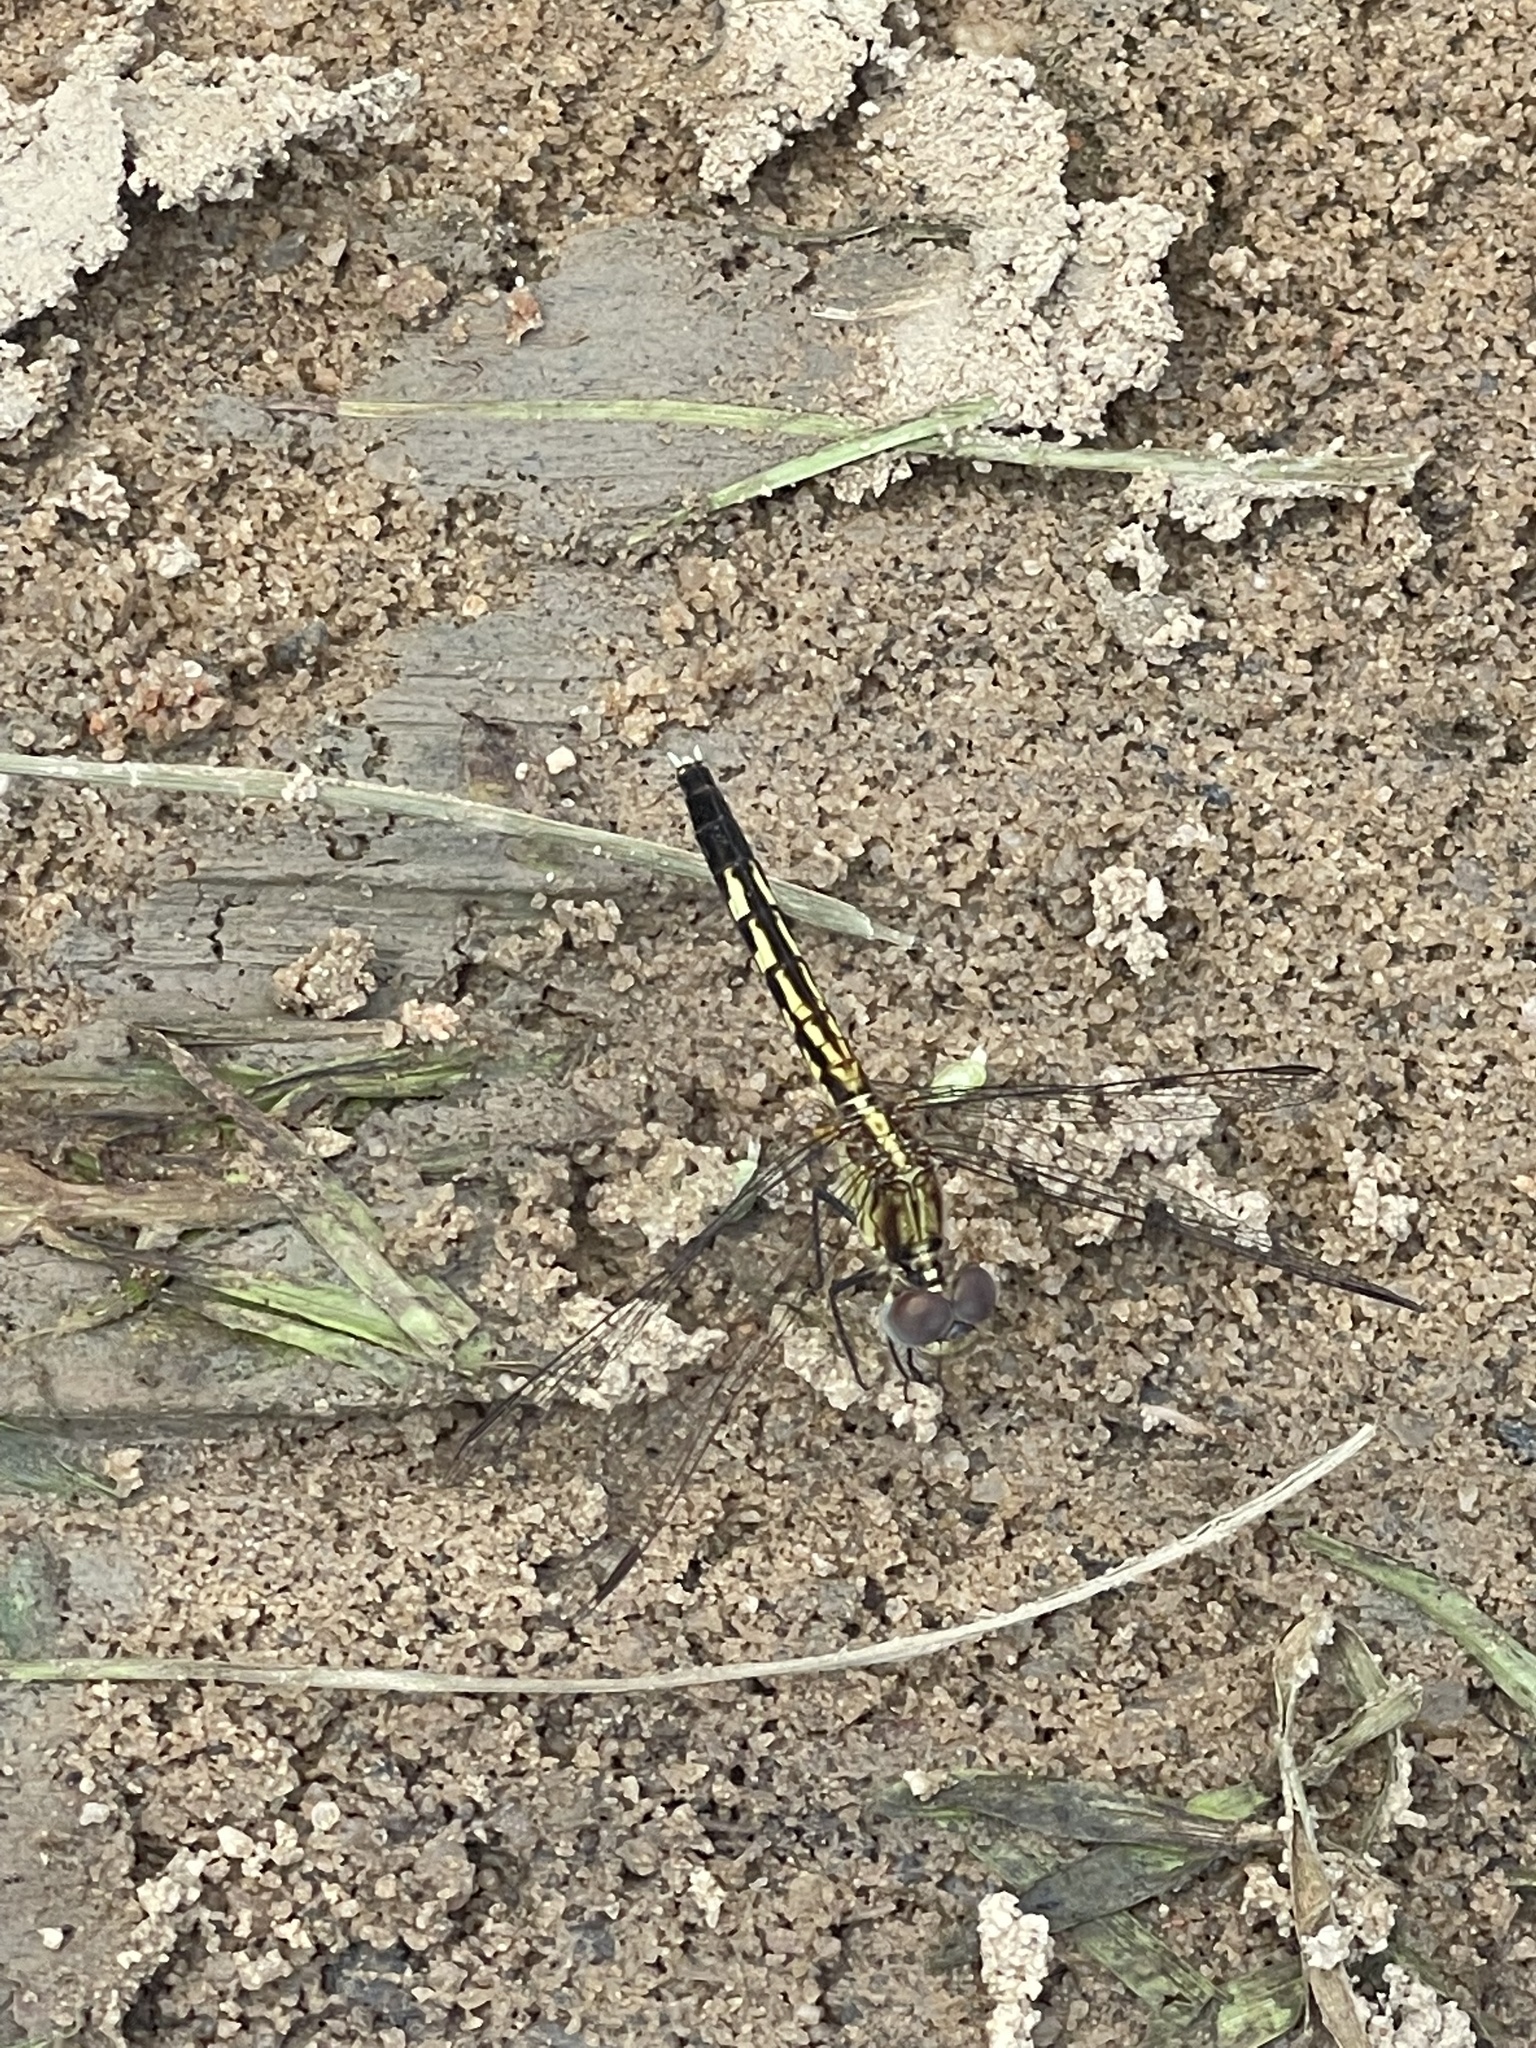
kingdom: Animalia
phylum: Arthropoda
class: Insecta
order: Odonata
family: Libellulidae
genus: Erythrodiplax
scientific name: Erythrodiplax minuscula
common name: Little blue dragonlet
